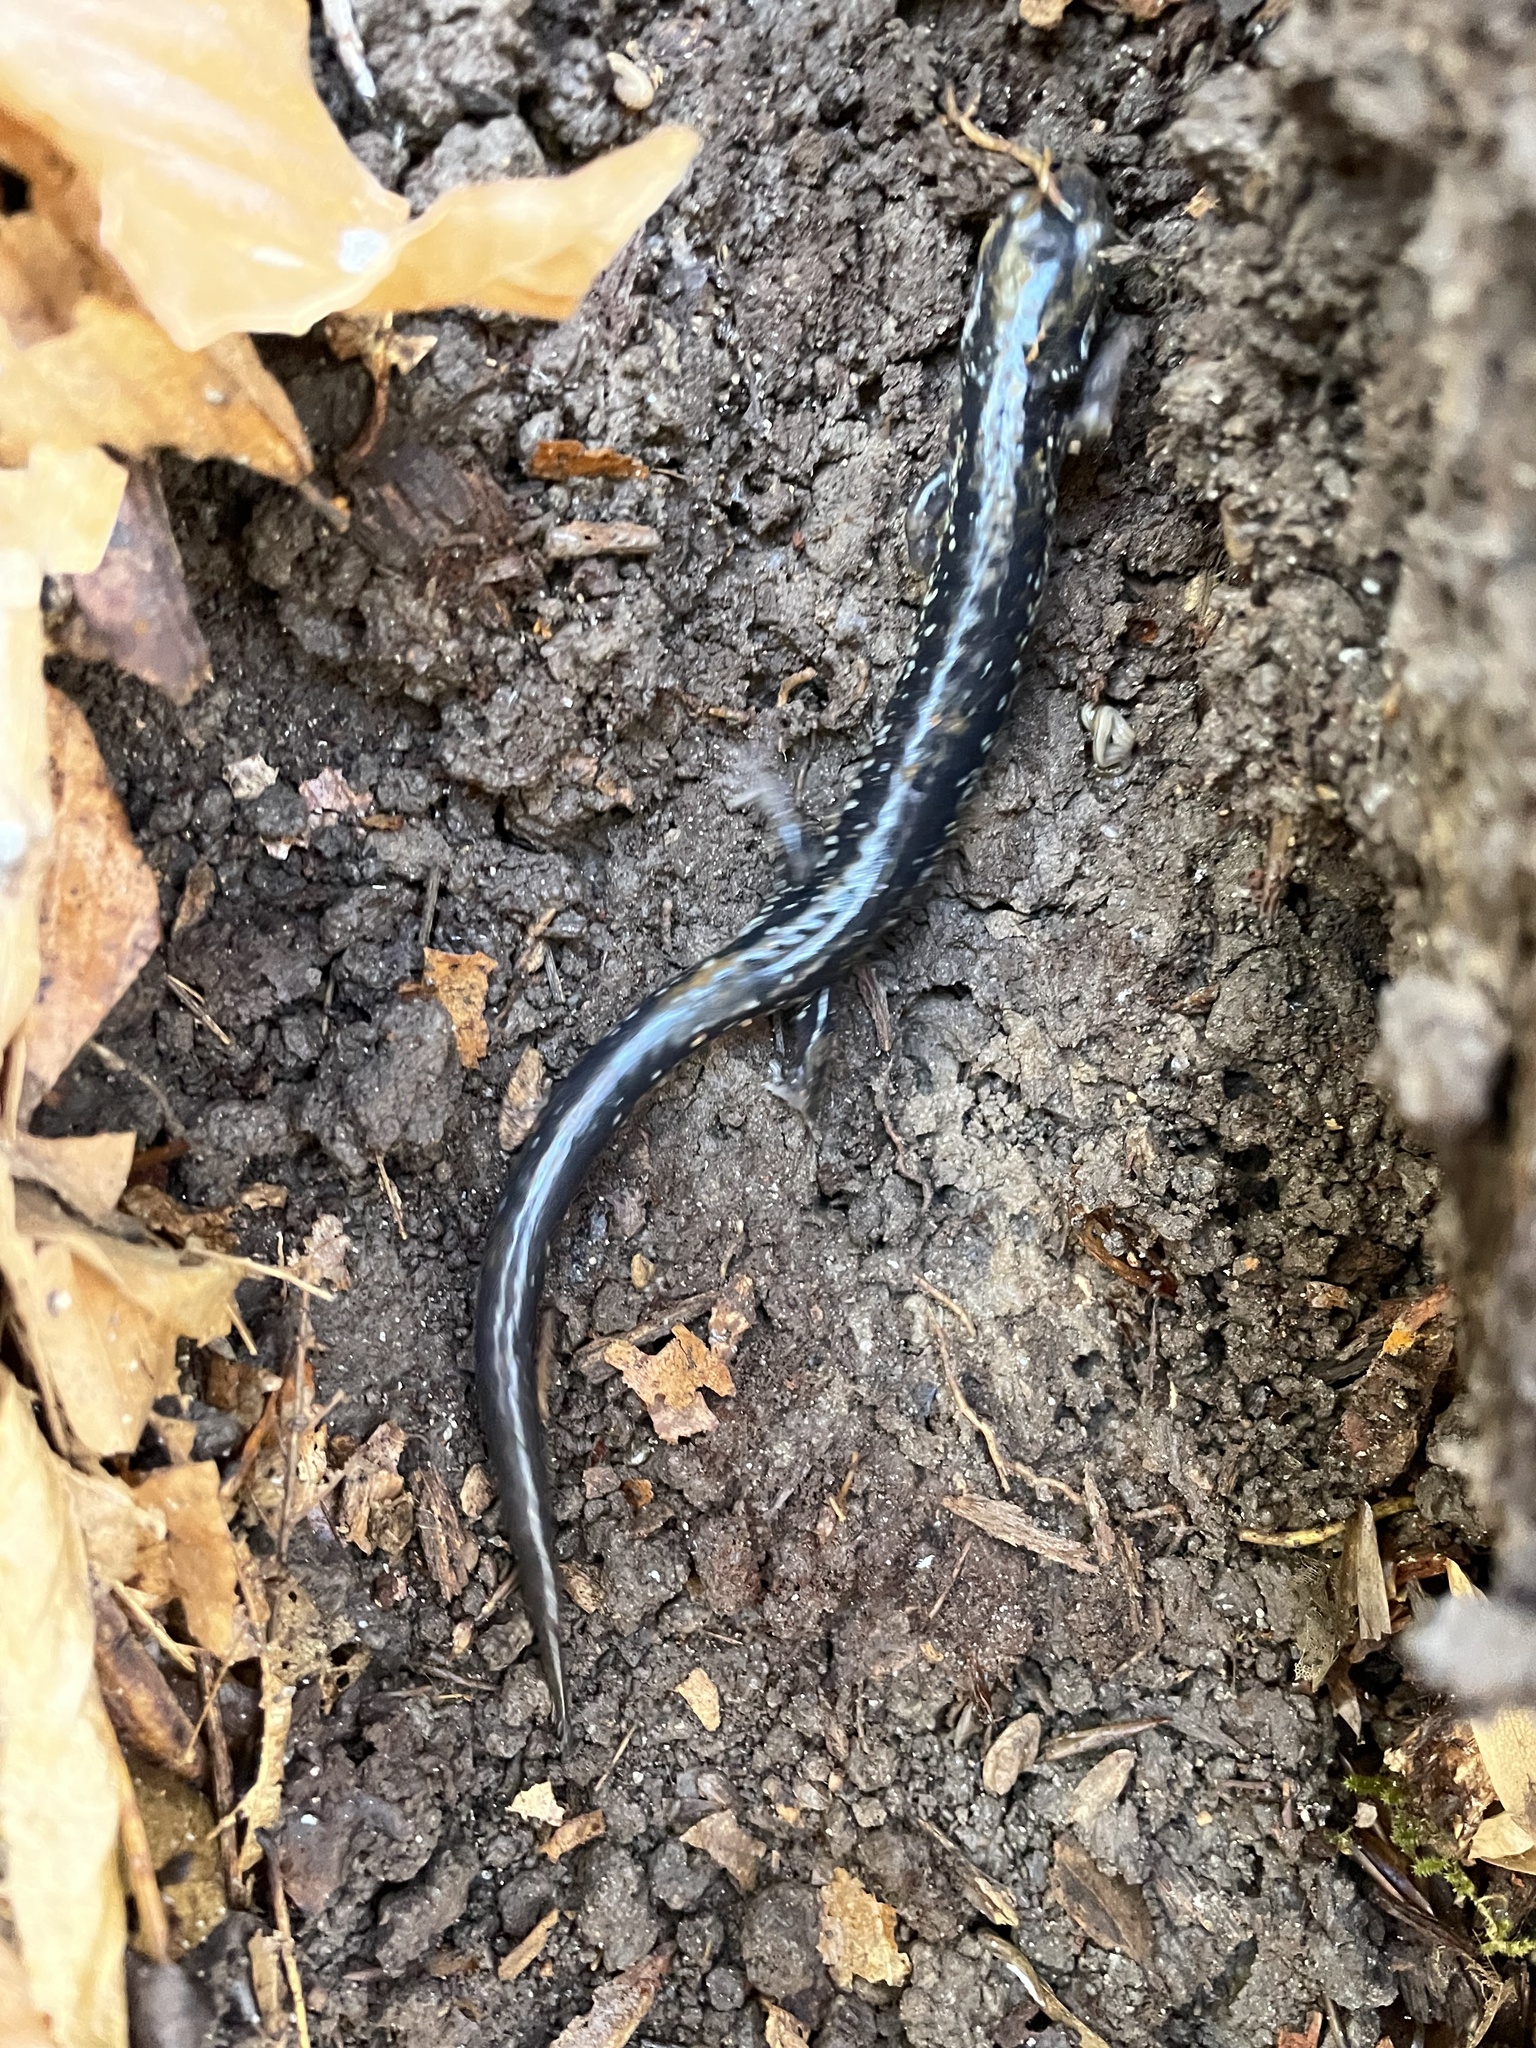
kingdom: Animalia
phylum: Chordata
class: Amphibia
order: Caudata
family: Plethodontidae
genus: Plethodon
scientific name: Plethodon glutinosus
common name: Northern slimy salamander
